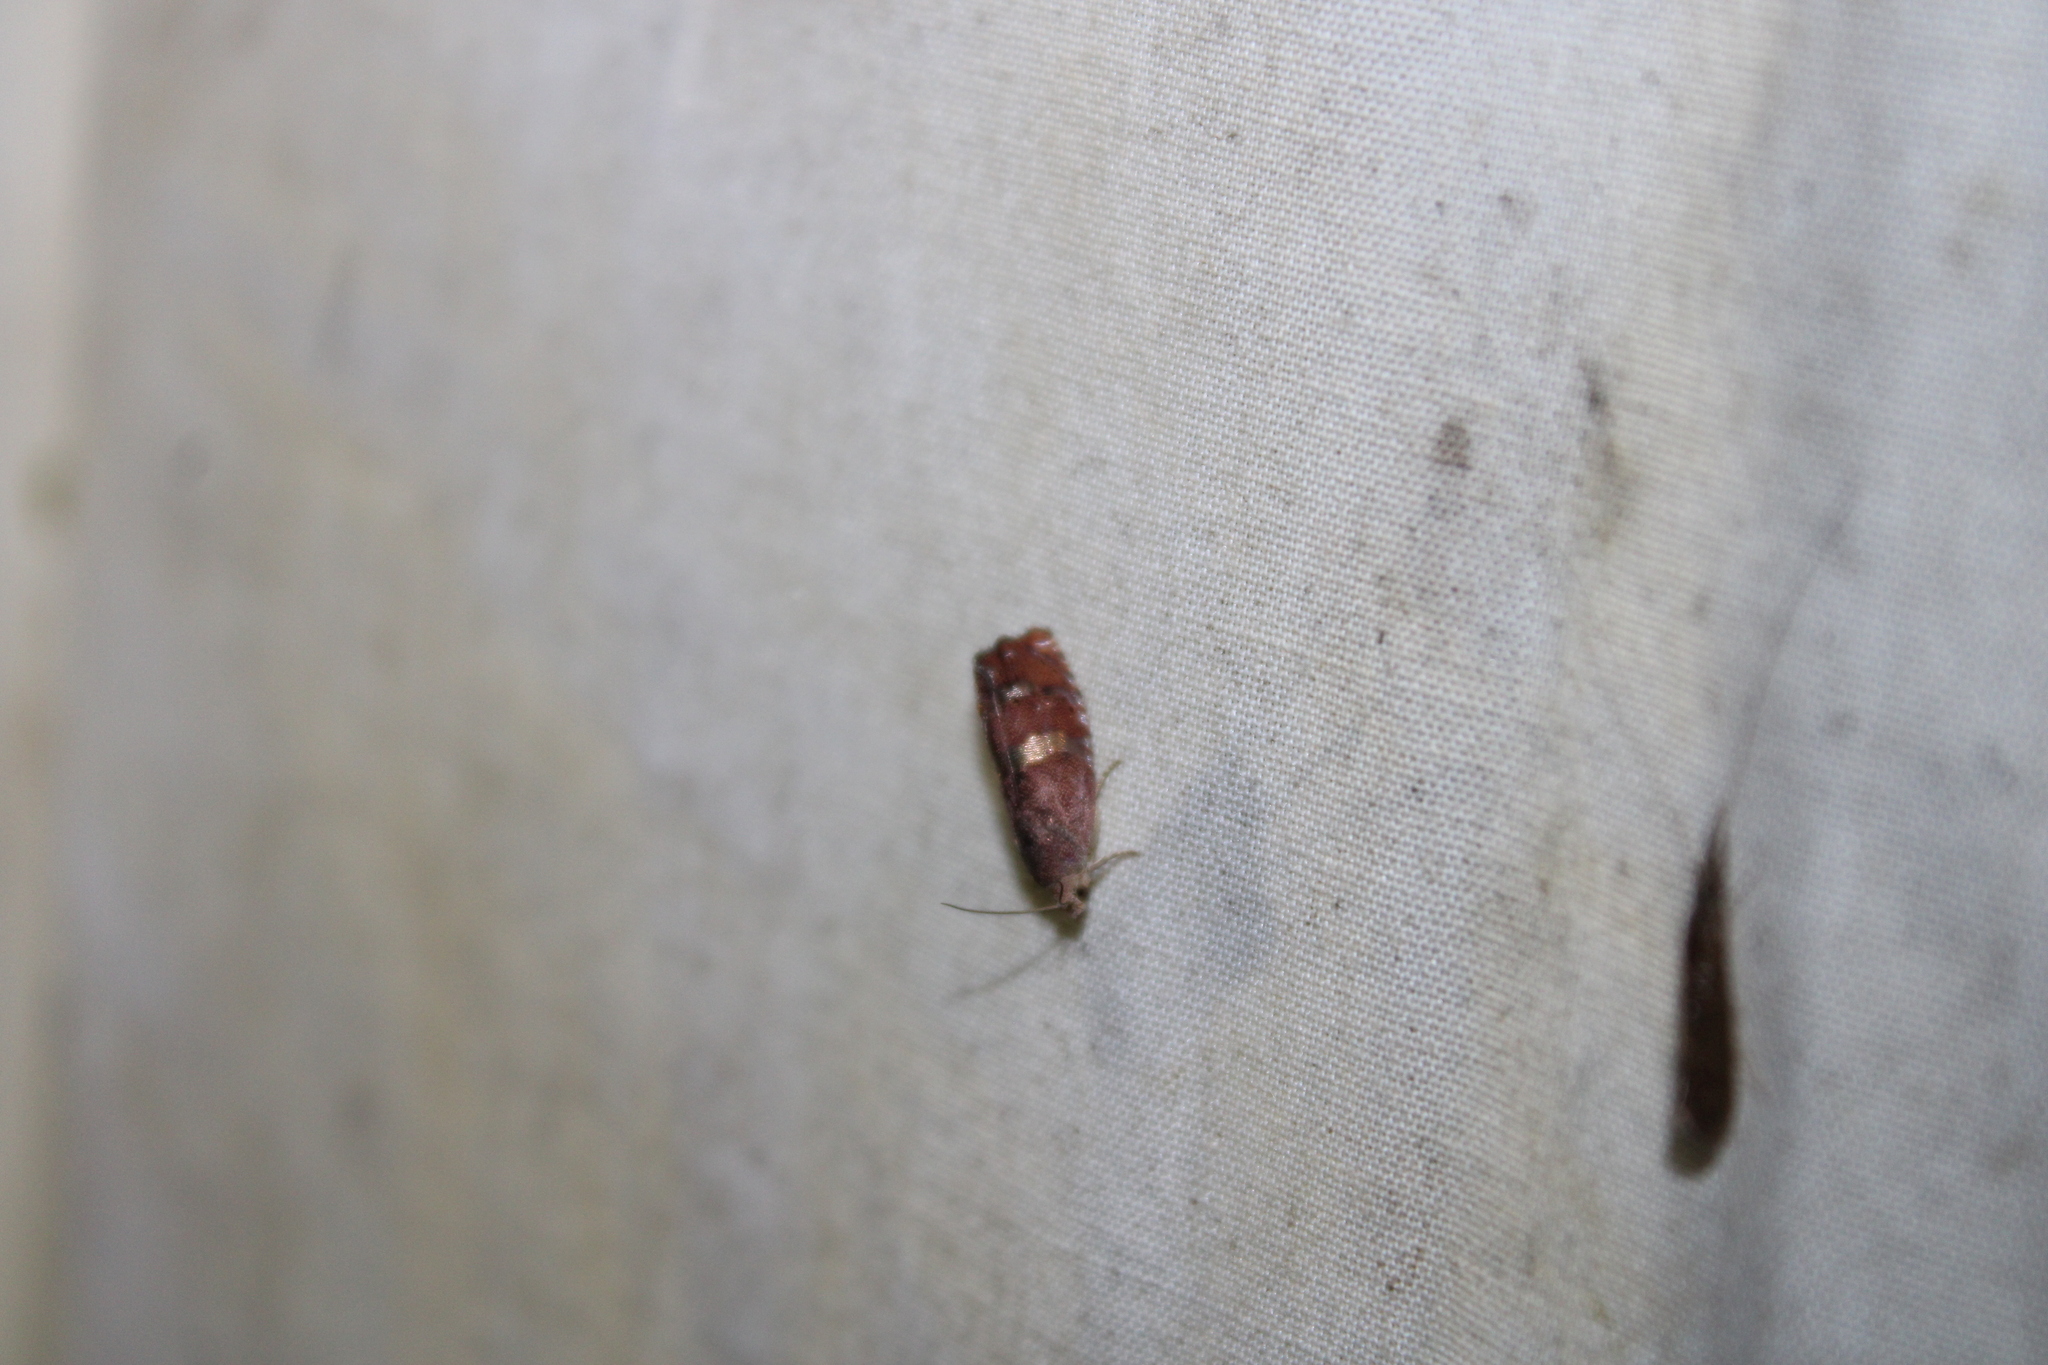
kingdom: Animalia
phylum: Arthropoda
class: Insecta
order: Lepidoptera
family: Tortricidae
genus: Cydia
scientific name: Cydia latiferreana
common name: Filbertworm moth
